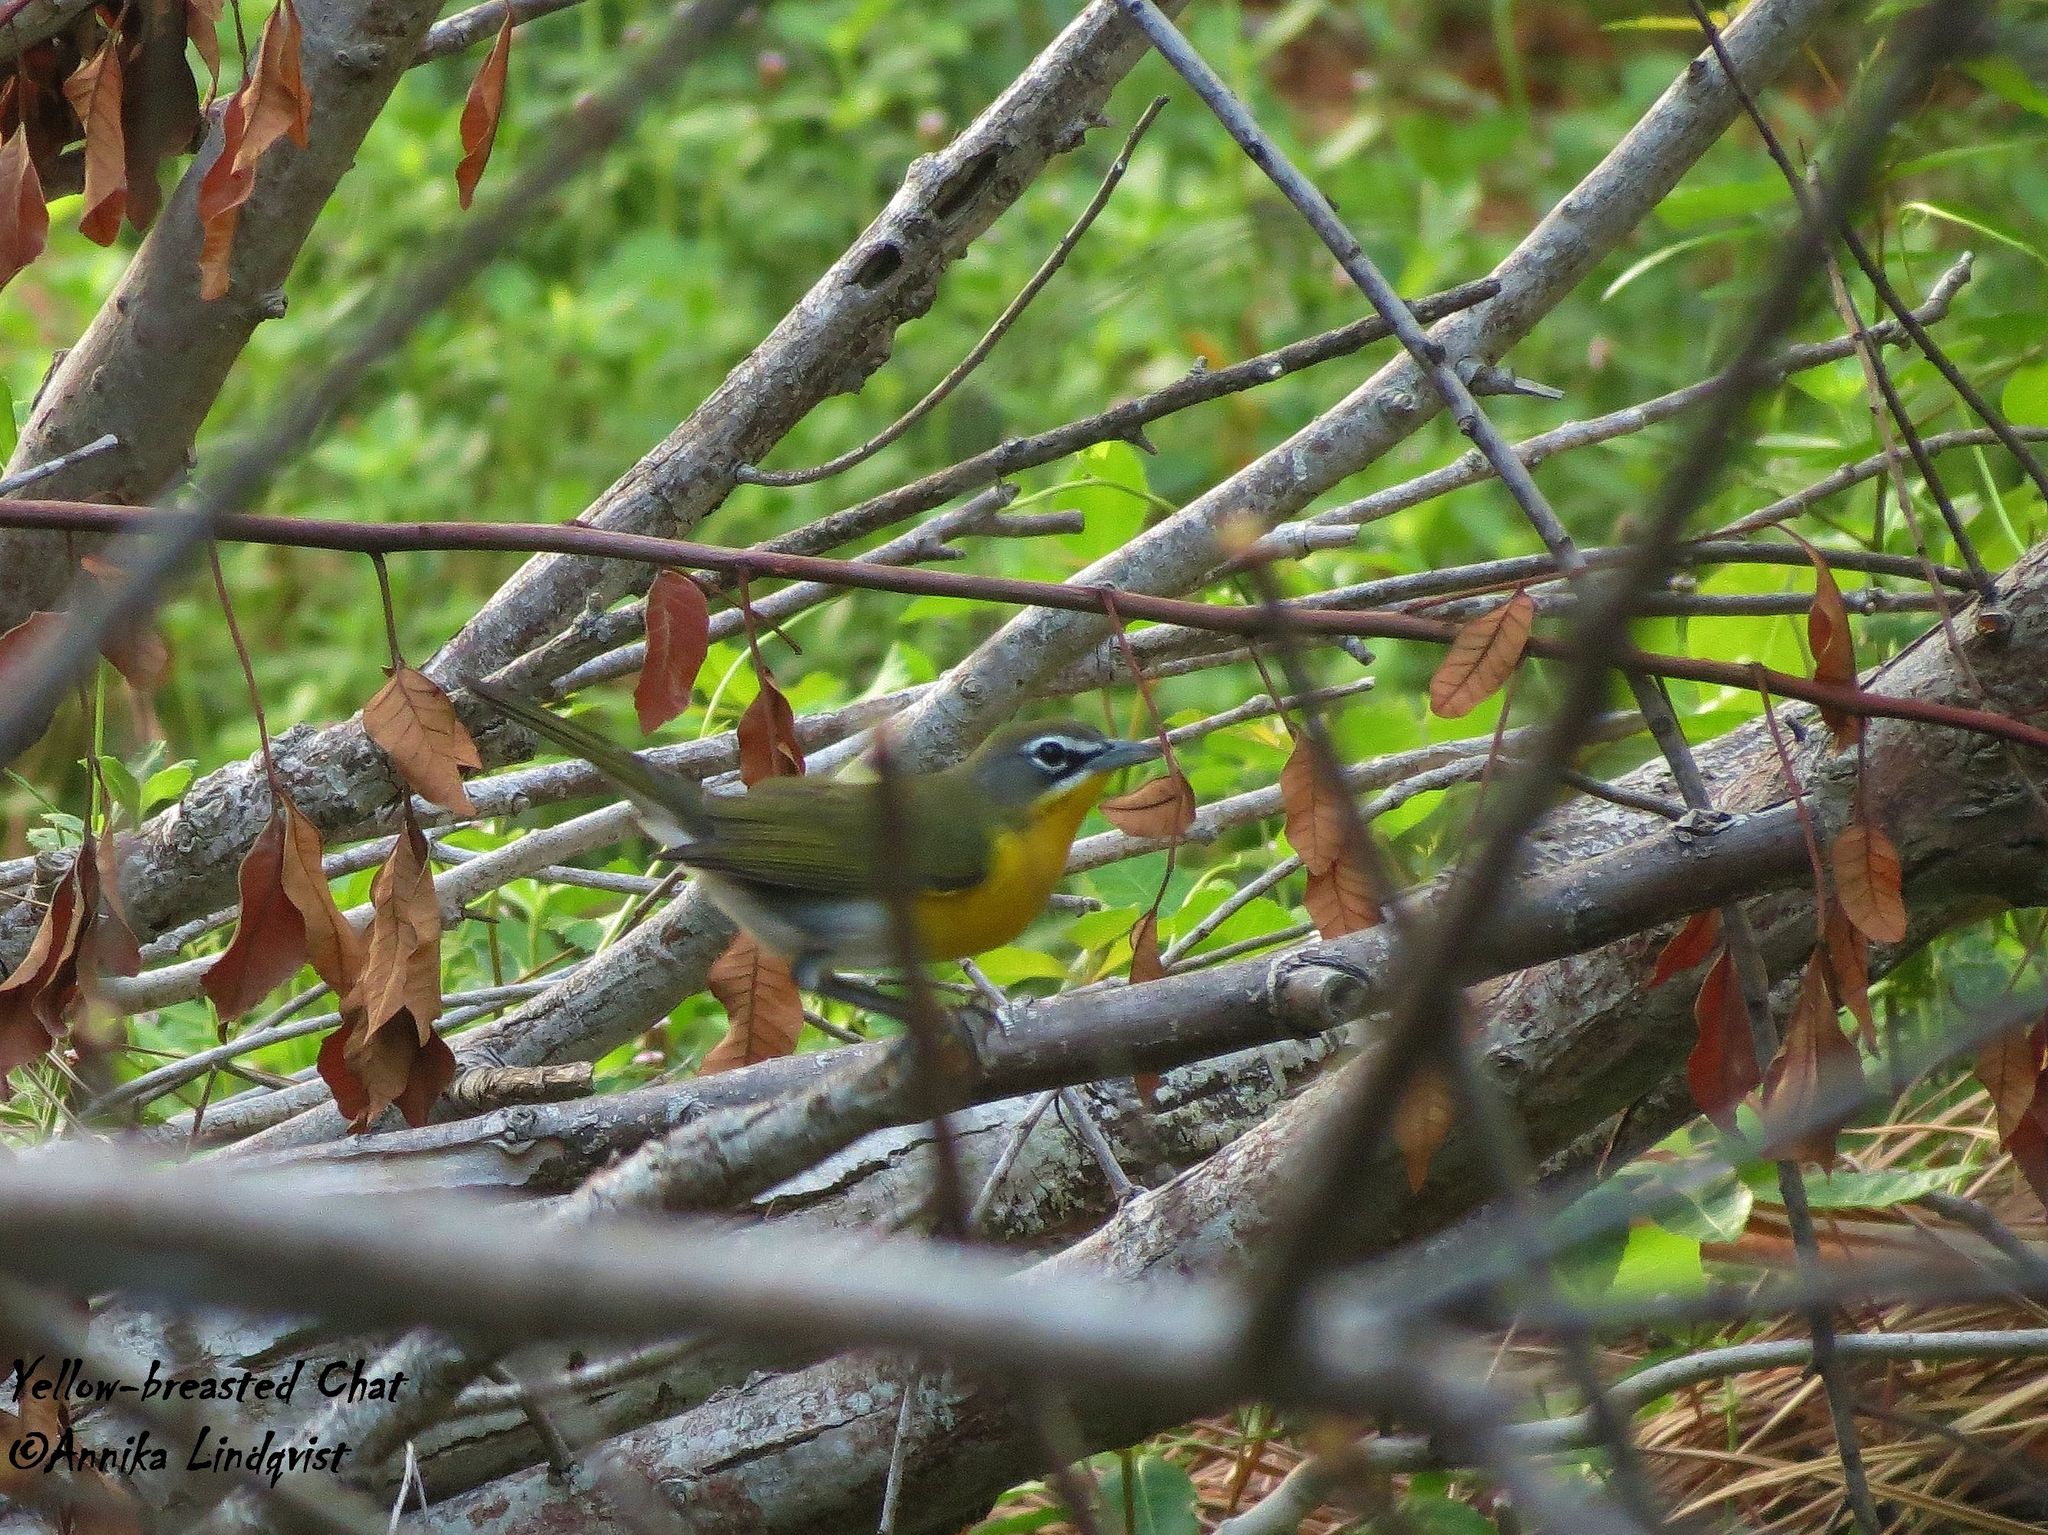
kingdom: Animalia
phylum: Chordata
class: Aves
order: Passeriformes
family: Parulidae
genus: Icteria
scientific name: Icteria virens
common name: Yellow-breasted chat
